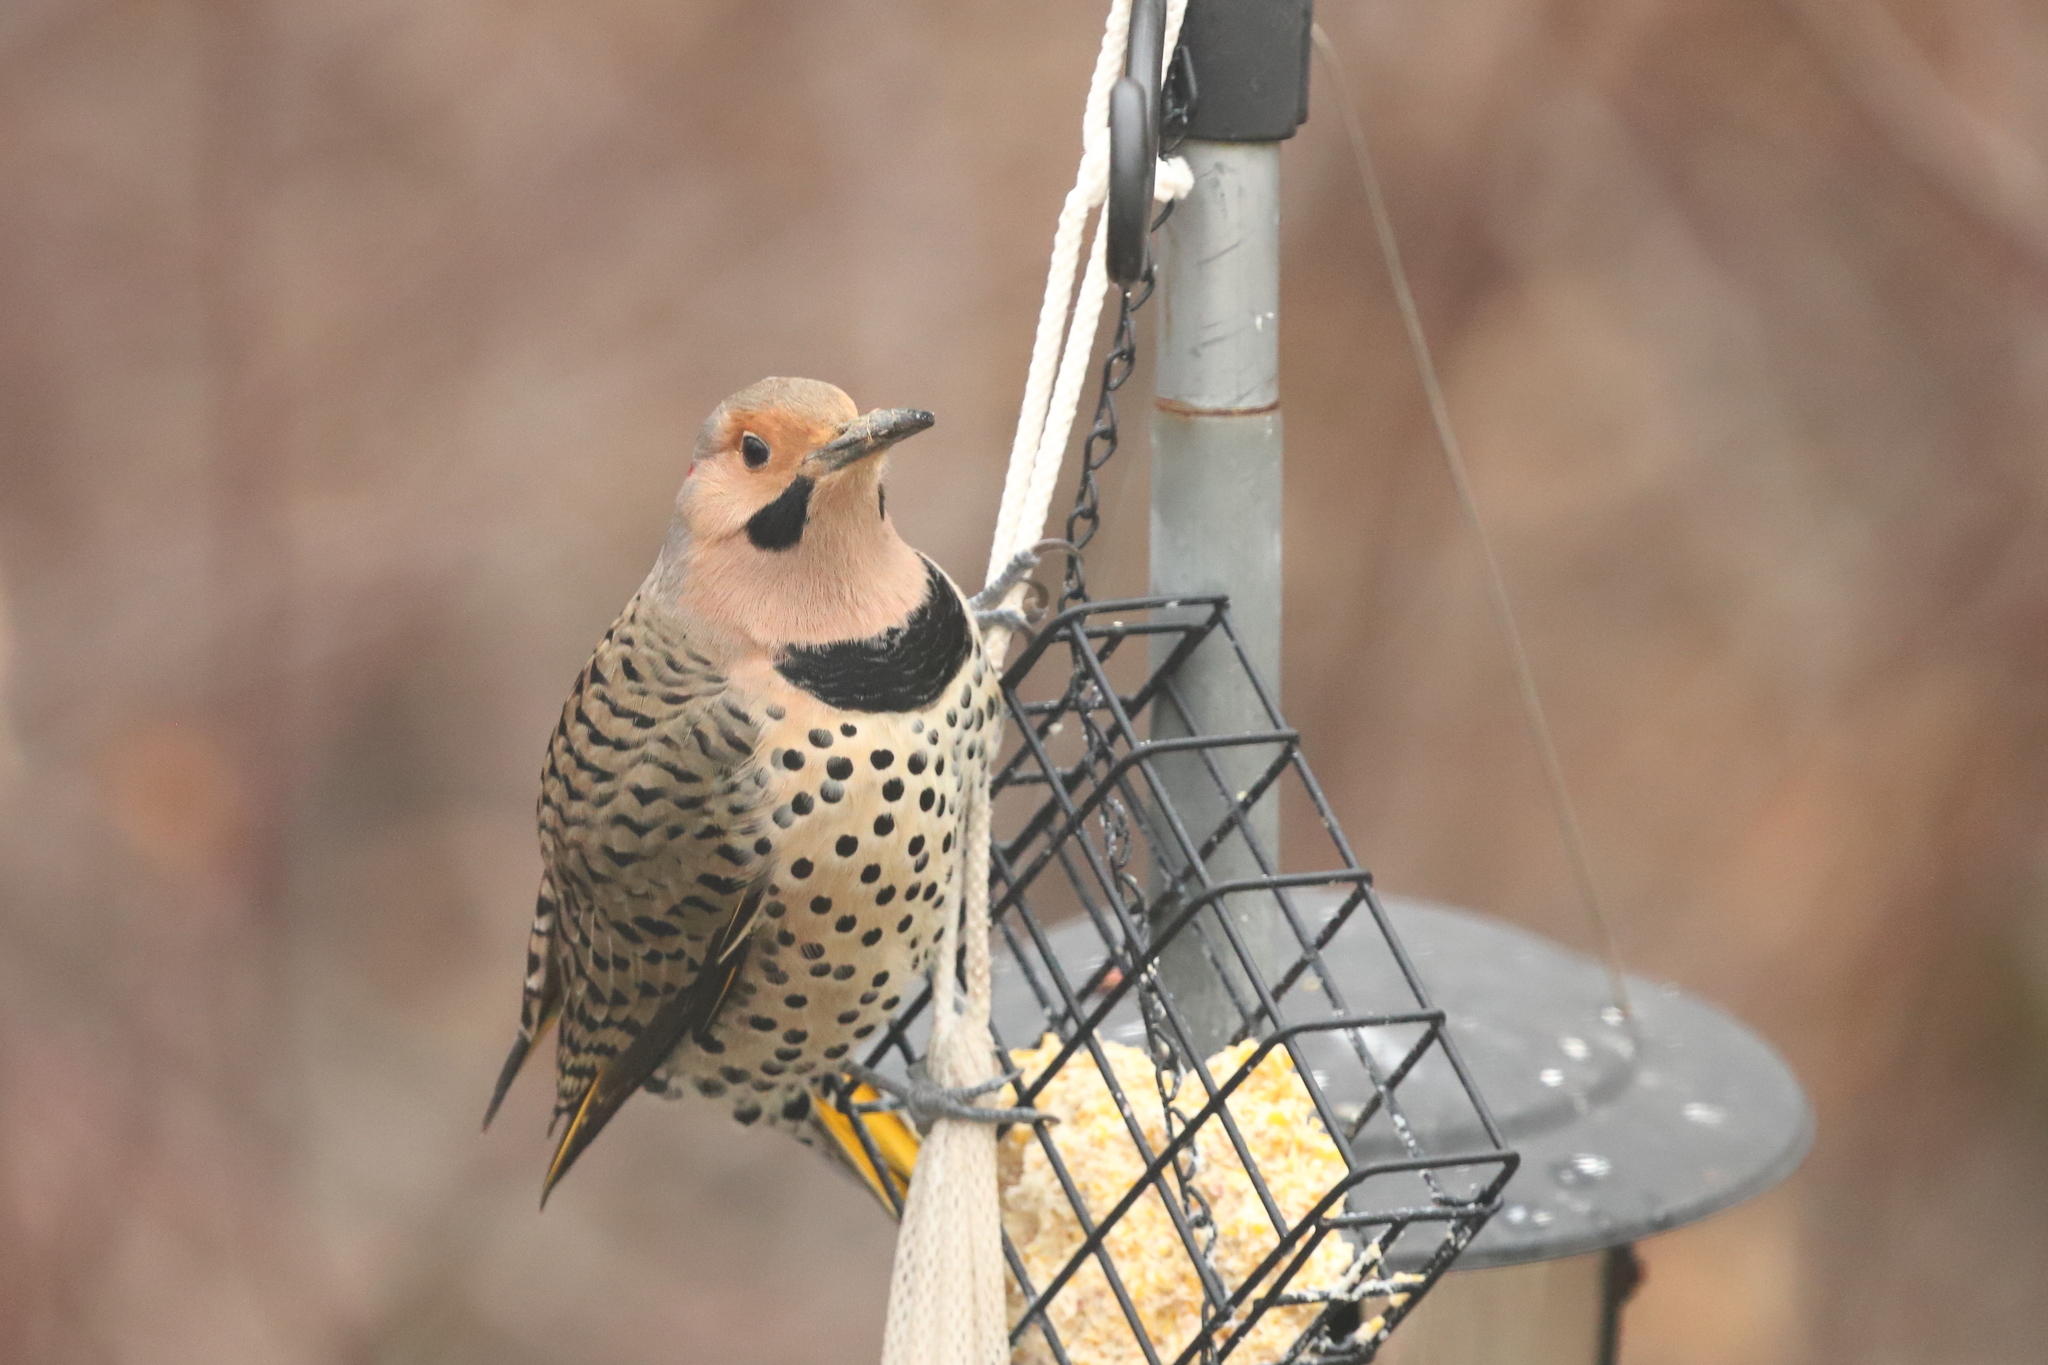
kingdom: Animalia
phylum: Chordata
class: Aves
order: Piciformes
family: Picidae
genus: Colaptes
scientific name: Colaptes auratus
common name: Northern flicker
